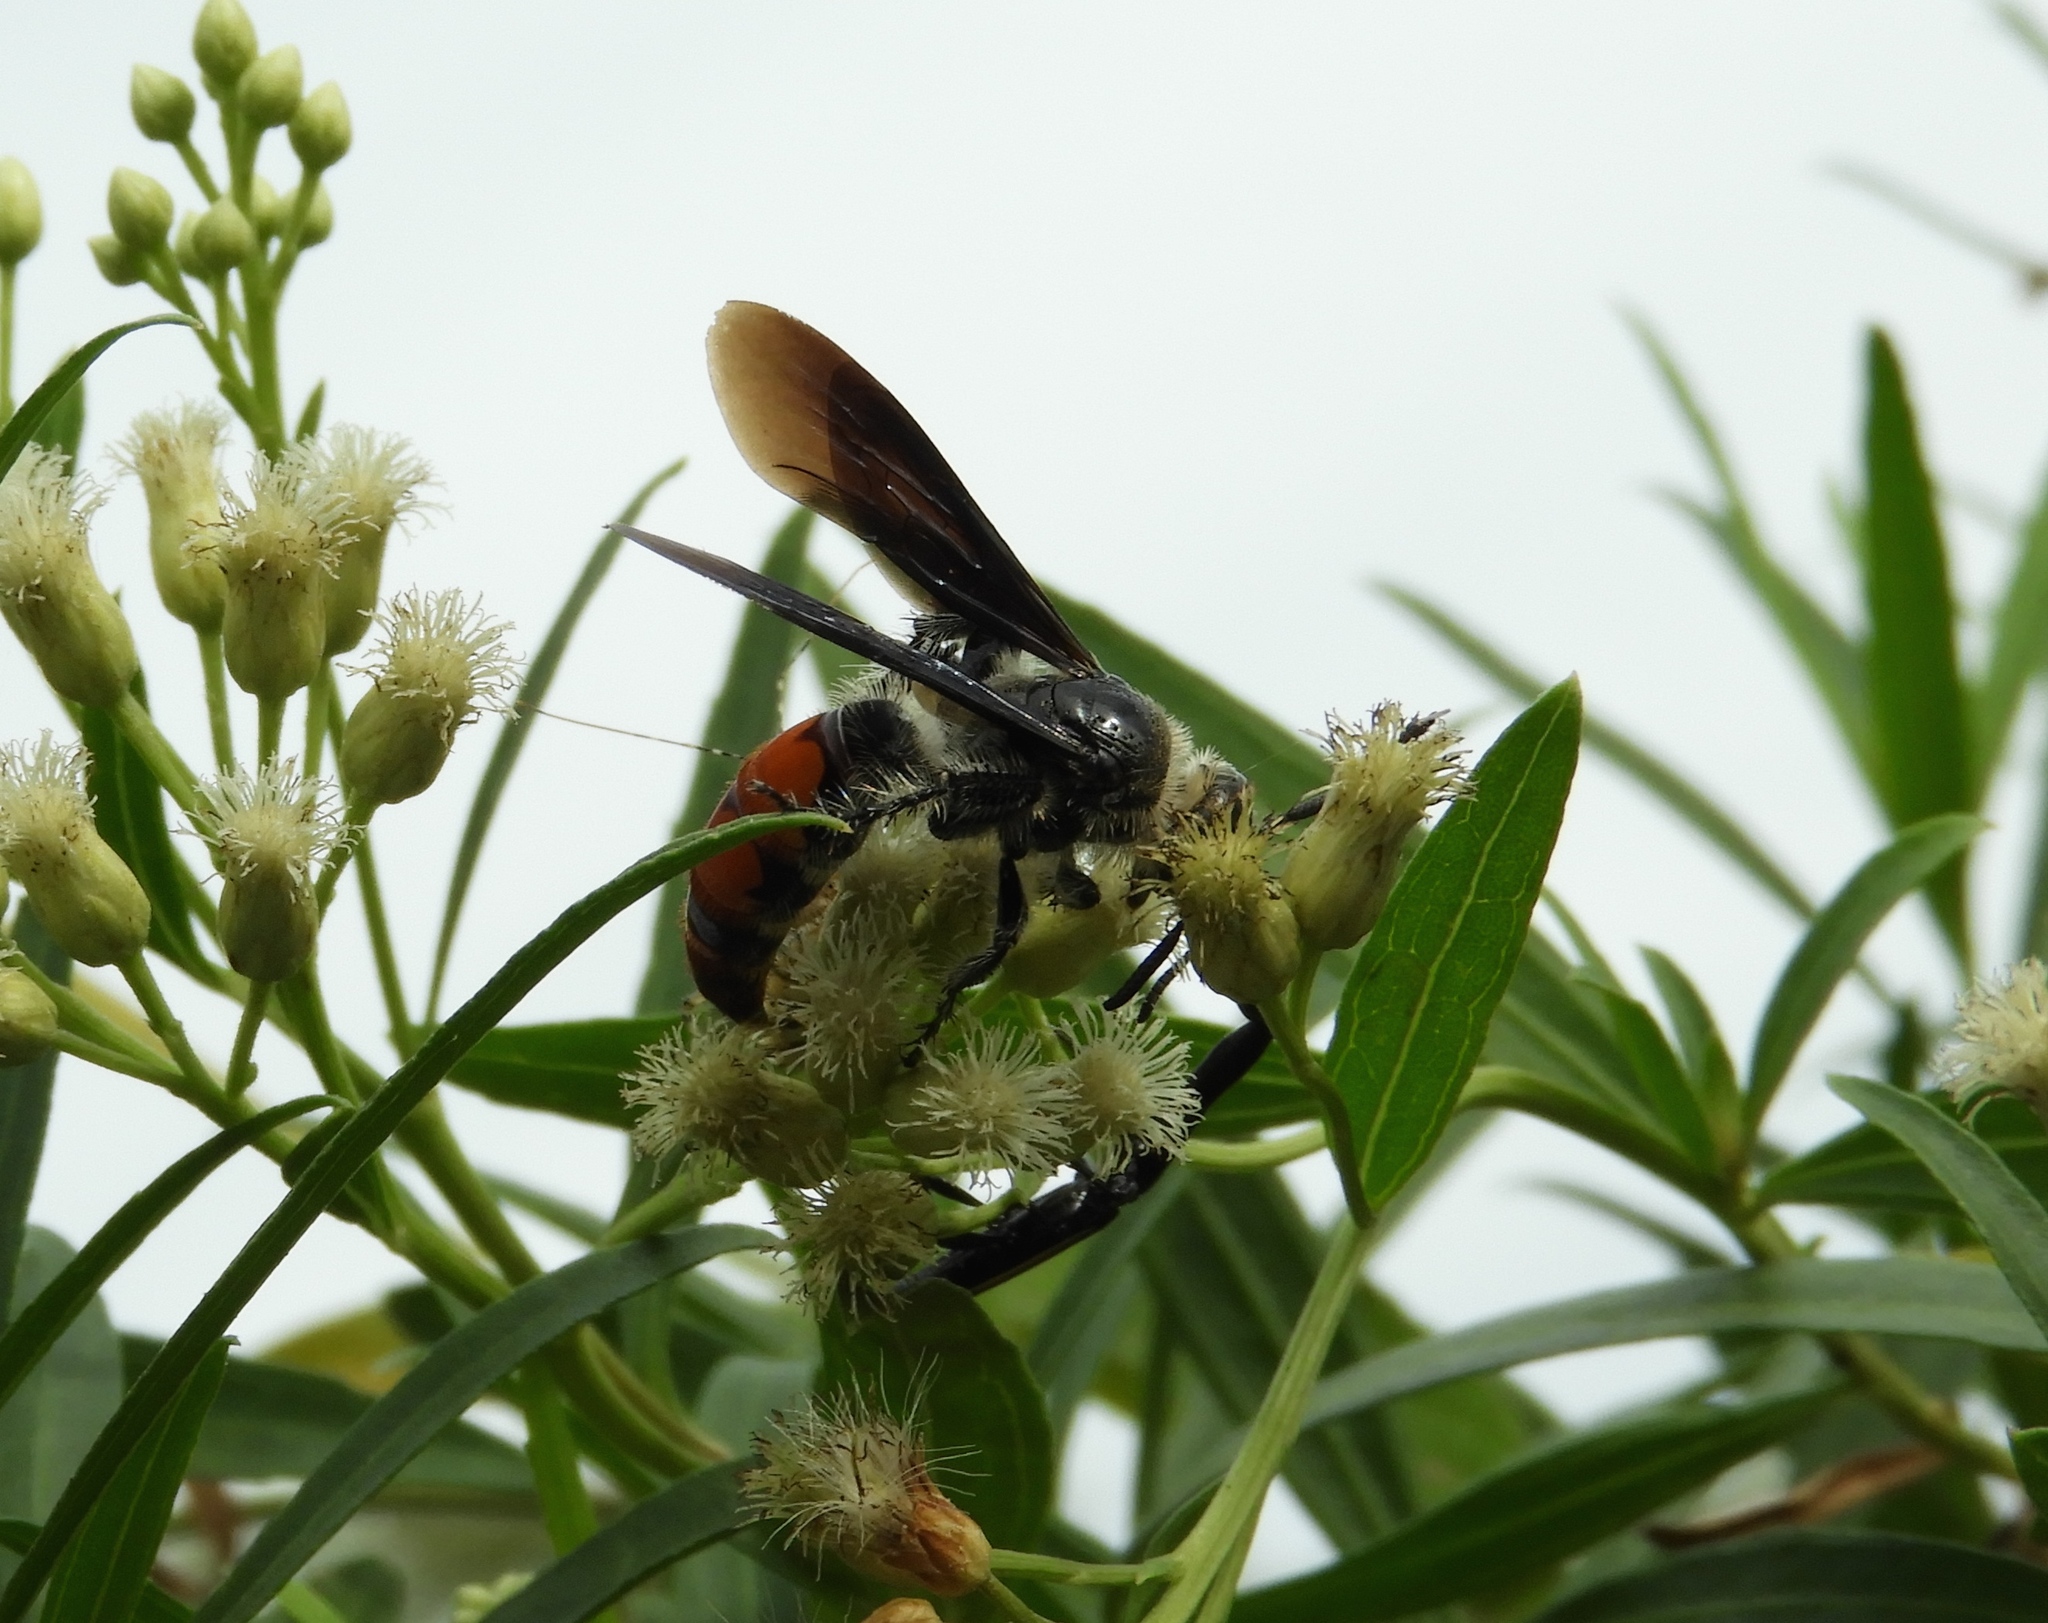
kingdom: Animalia
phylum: Arthropoda
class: Insecta
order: Hymenoptera
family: Scoliidae
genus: Dielis
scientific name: Dielis tolteca
